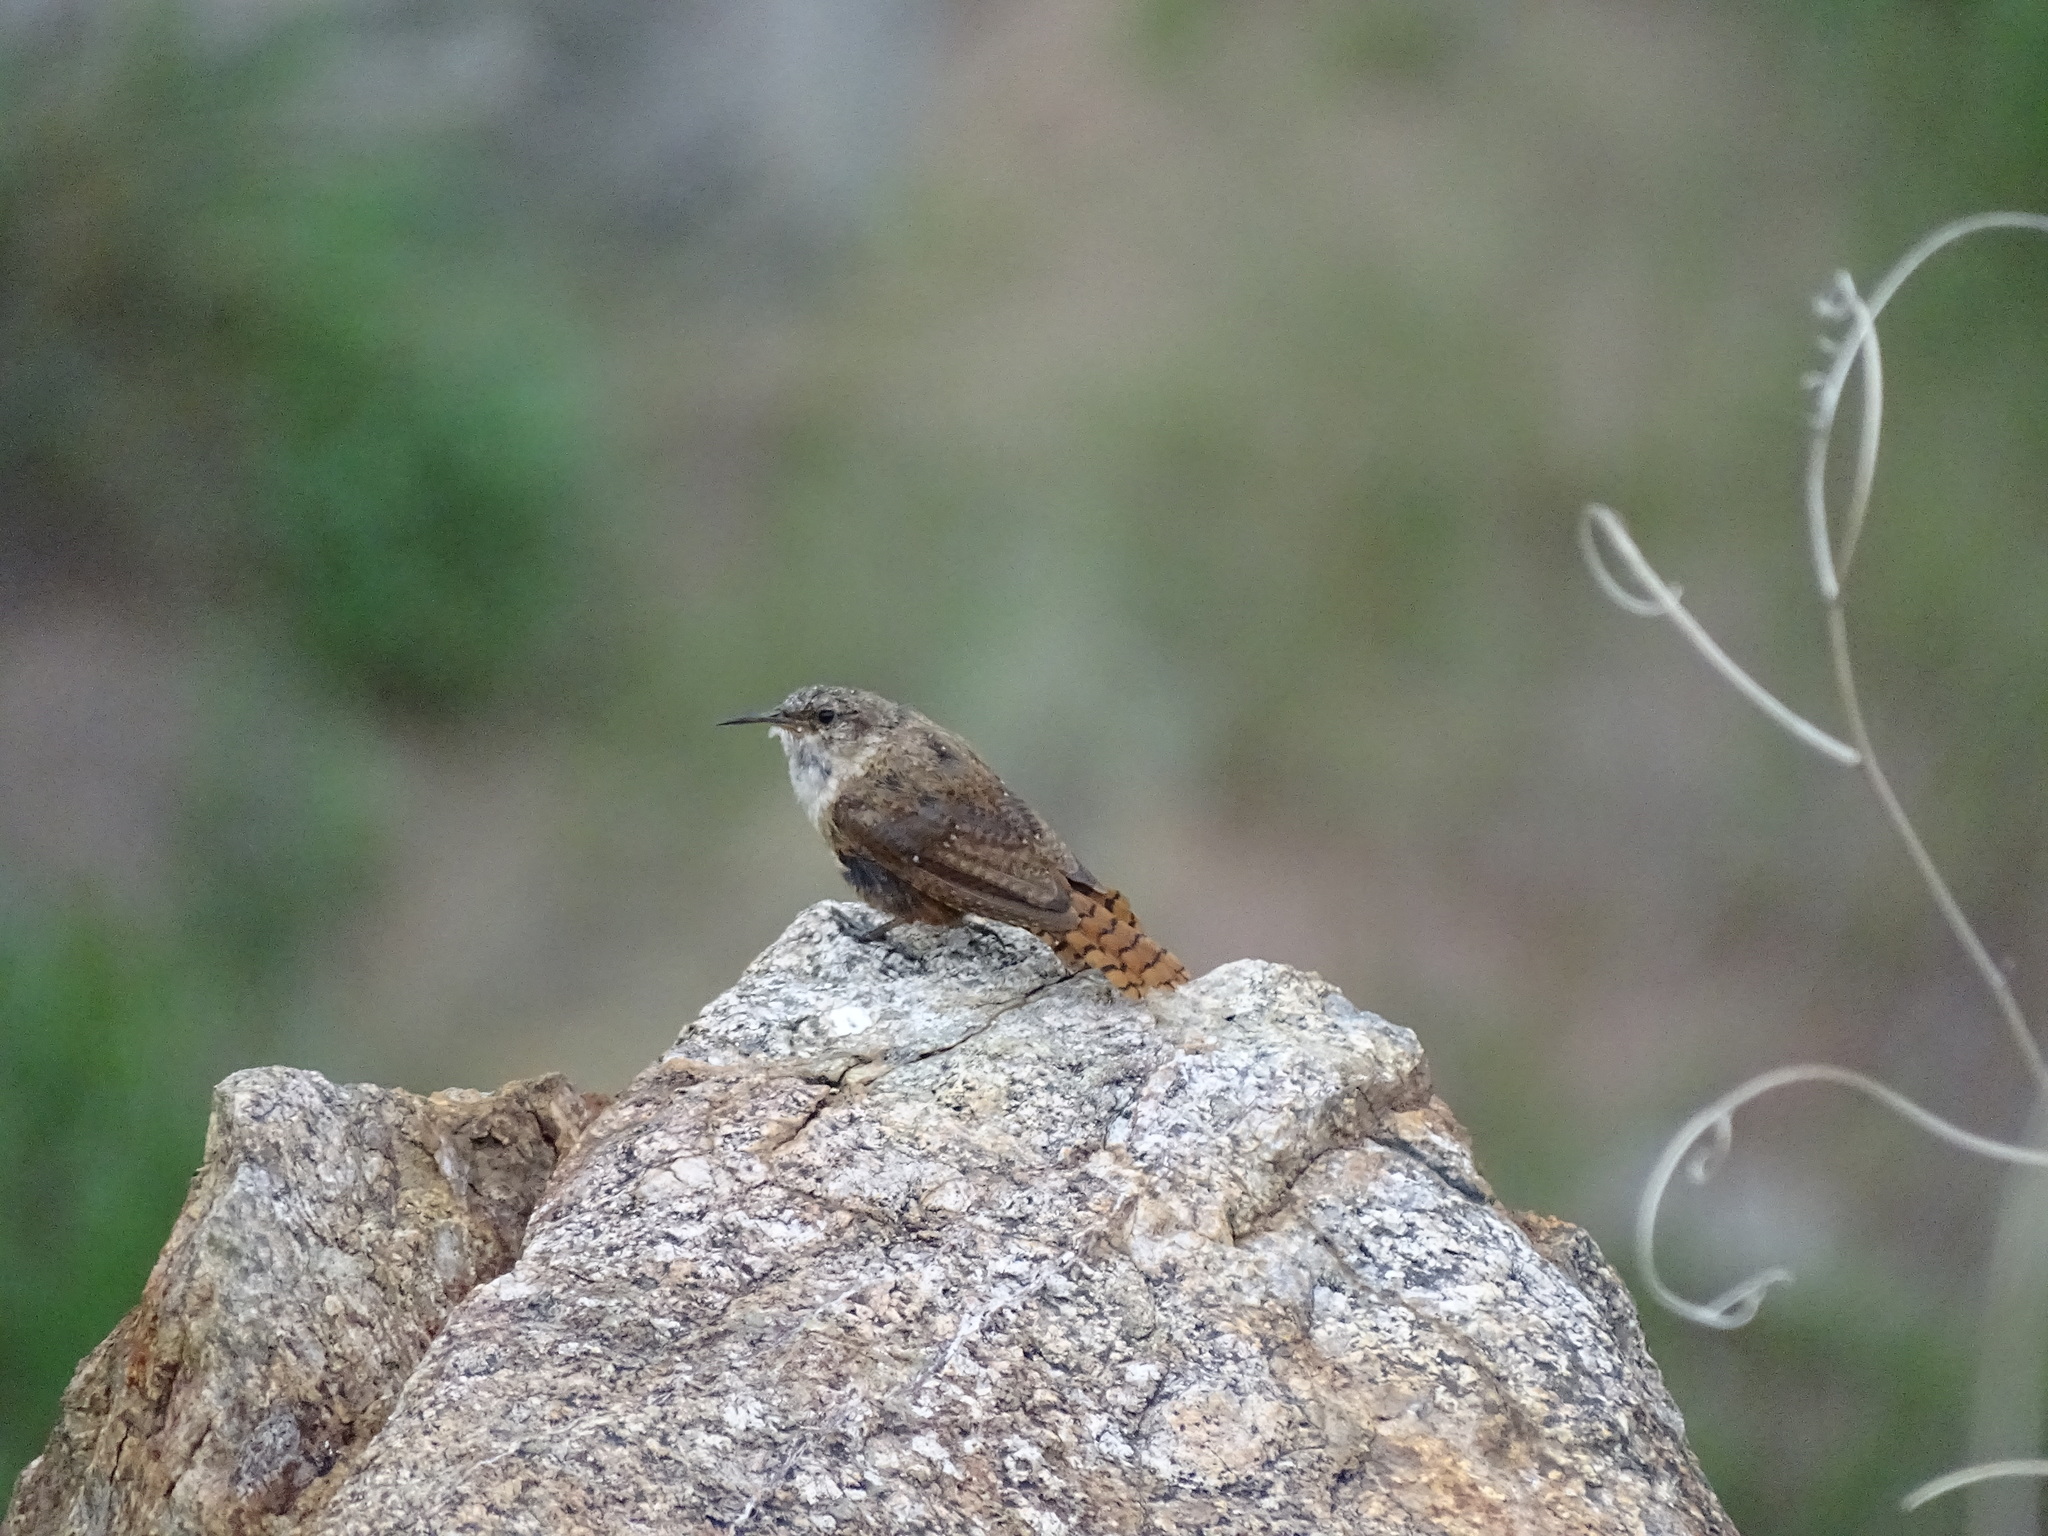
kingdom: Animalia
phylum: Chordata
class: Aves
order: Passeriformes
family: Troglodytidae
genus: Catherpes
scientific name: Catherpes mexicanus
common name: Canyon wren
